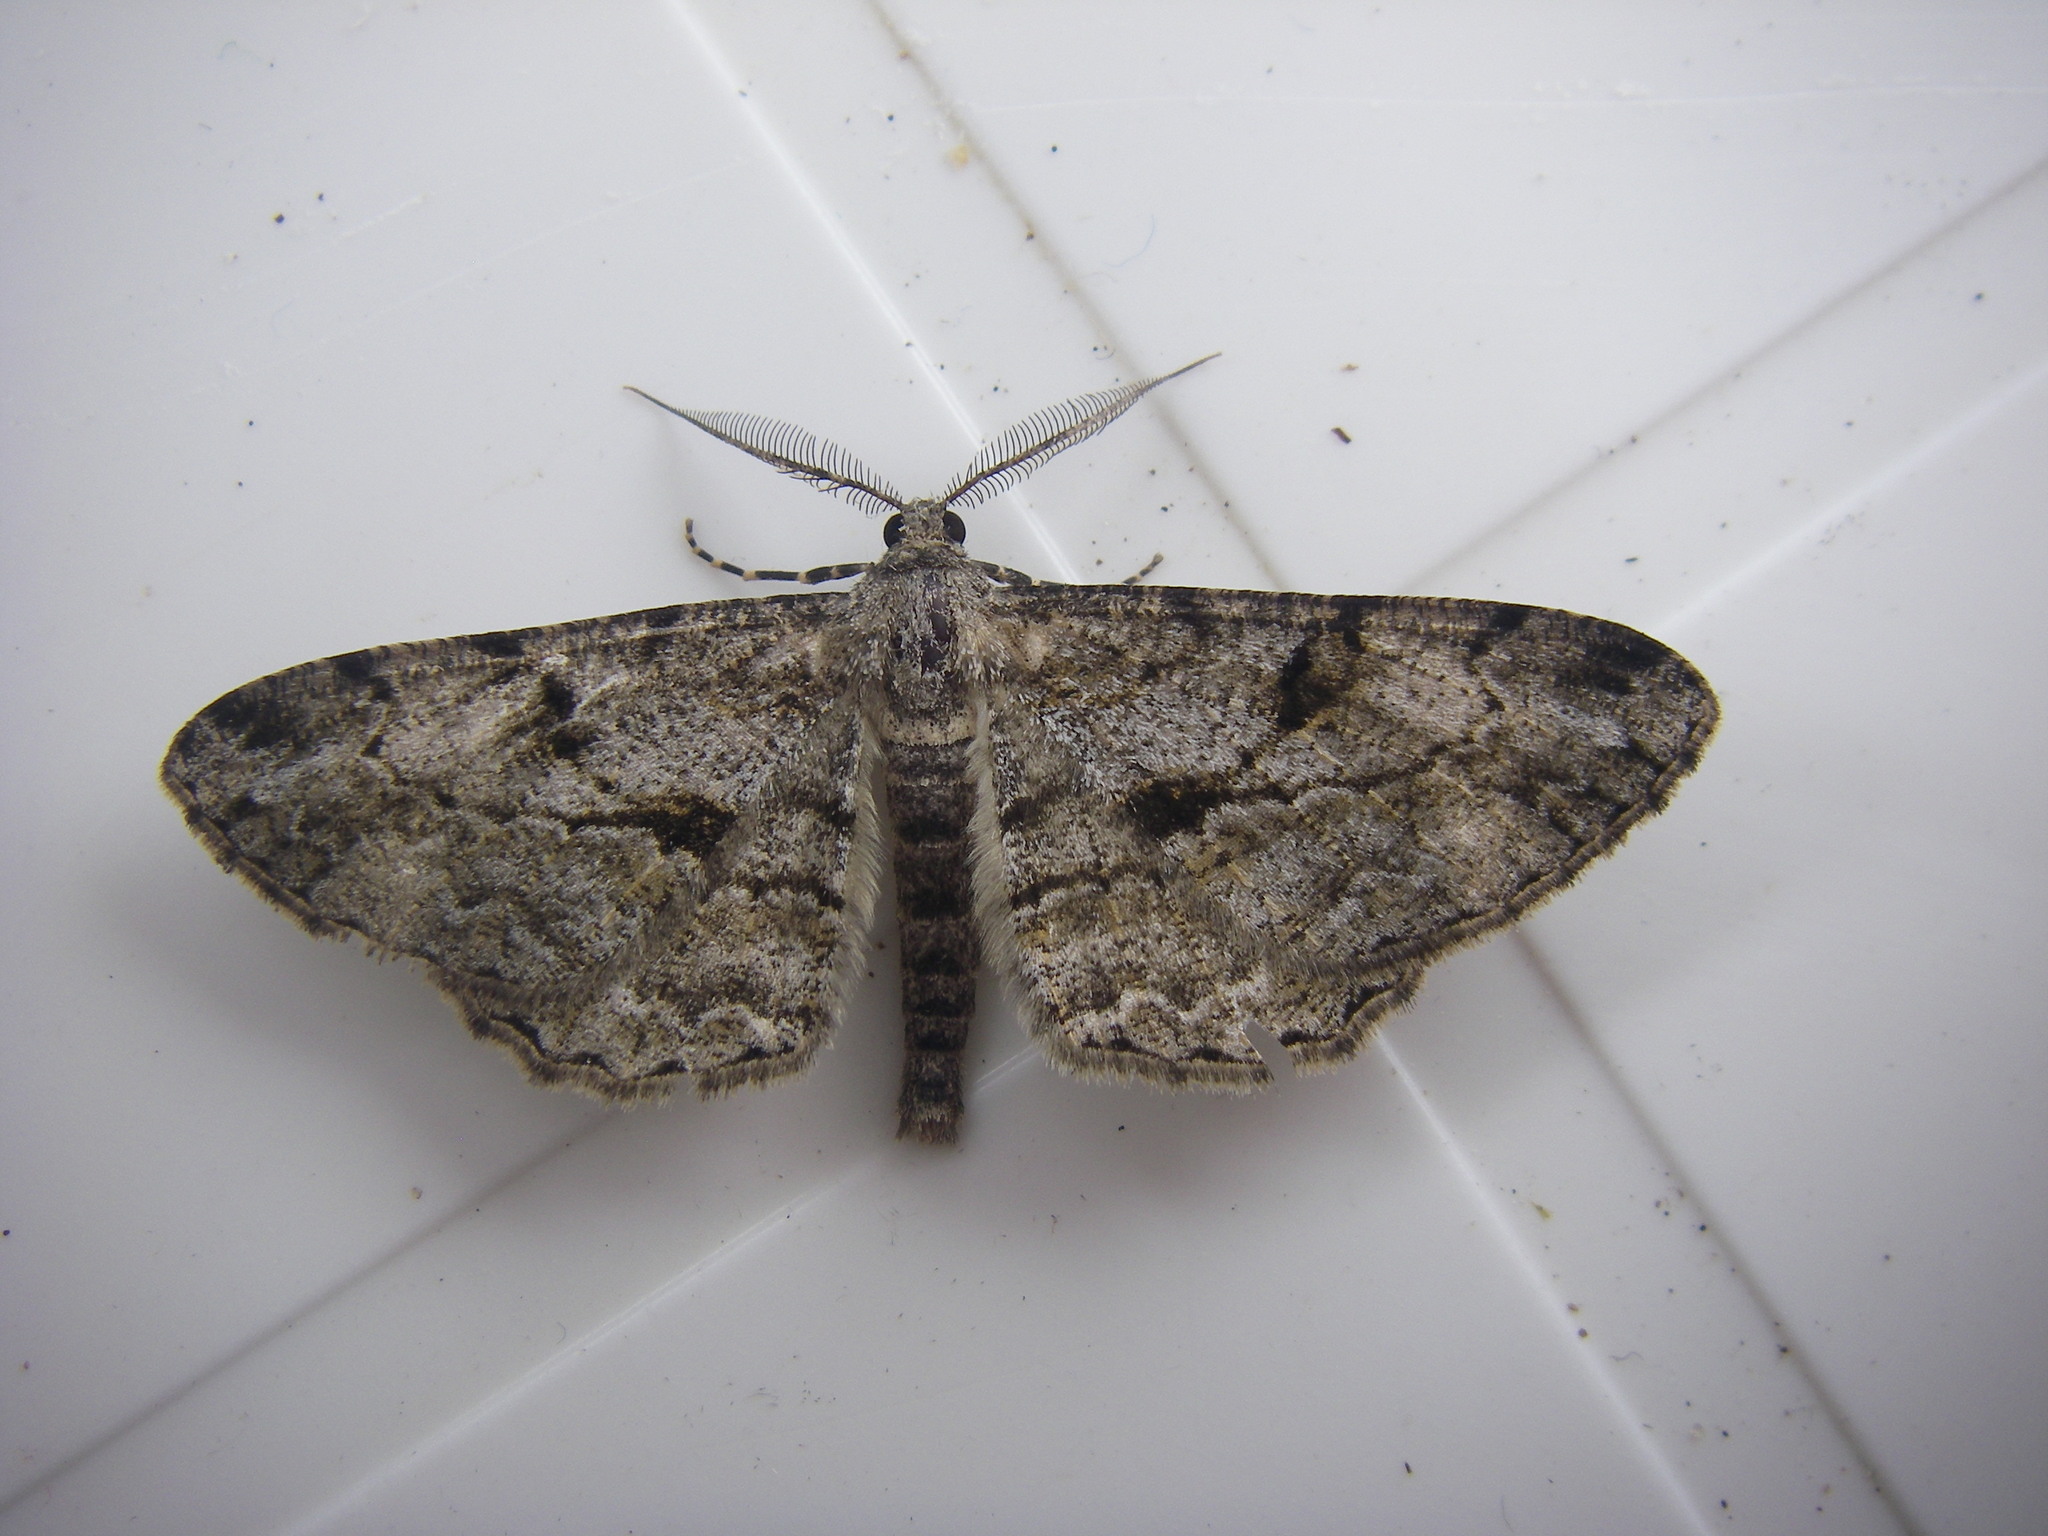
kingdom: Animalia
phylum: Arthropoda
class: Insecta
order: Lepidoptera
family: Geometridae
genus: Peribatodes
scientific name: Peribatodes rhomboidaria
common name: Willow beauty
